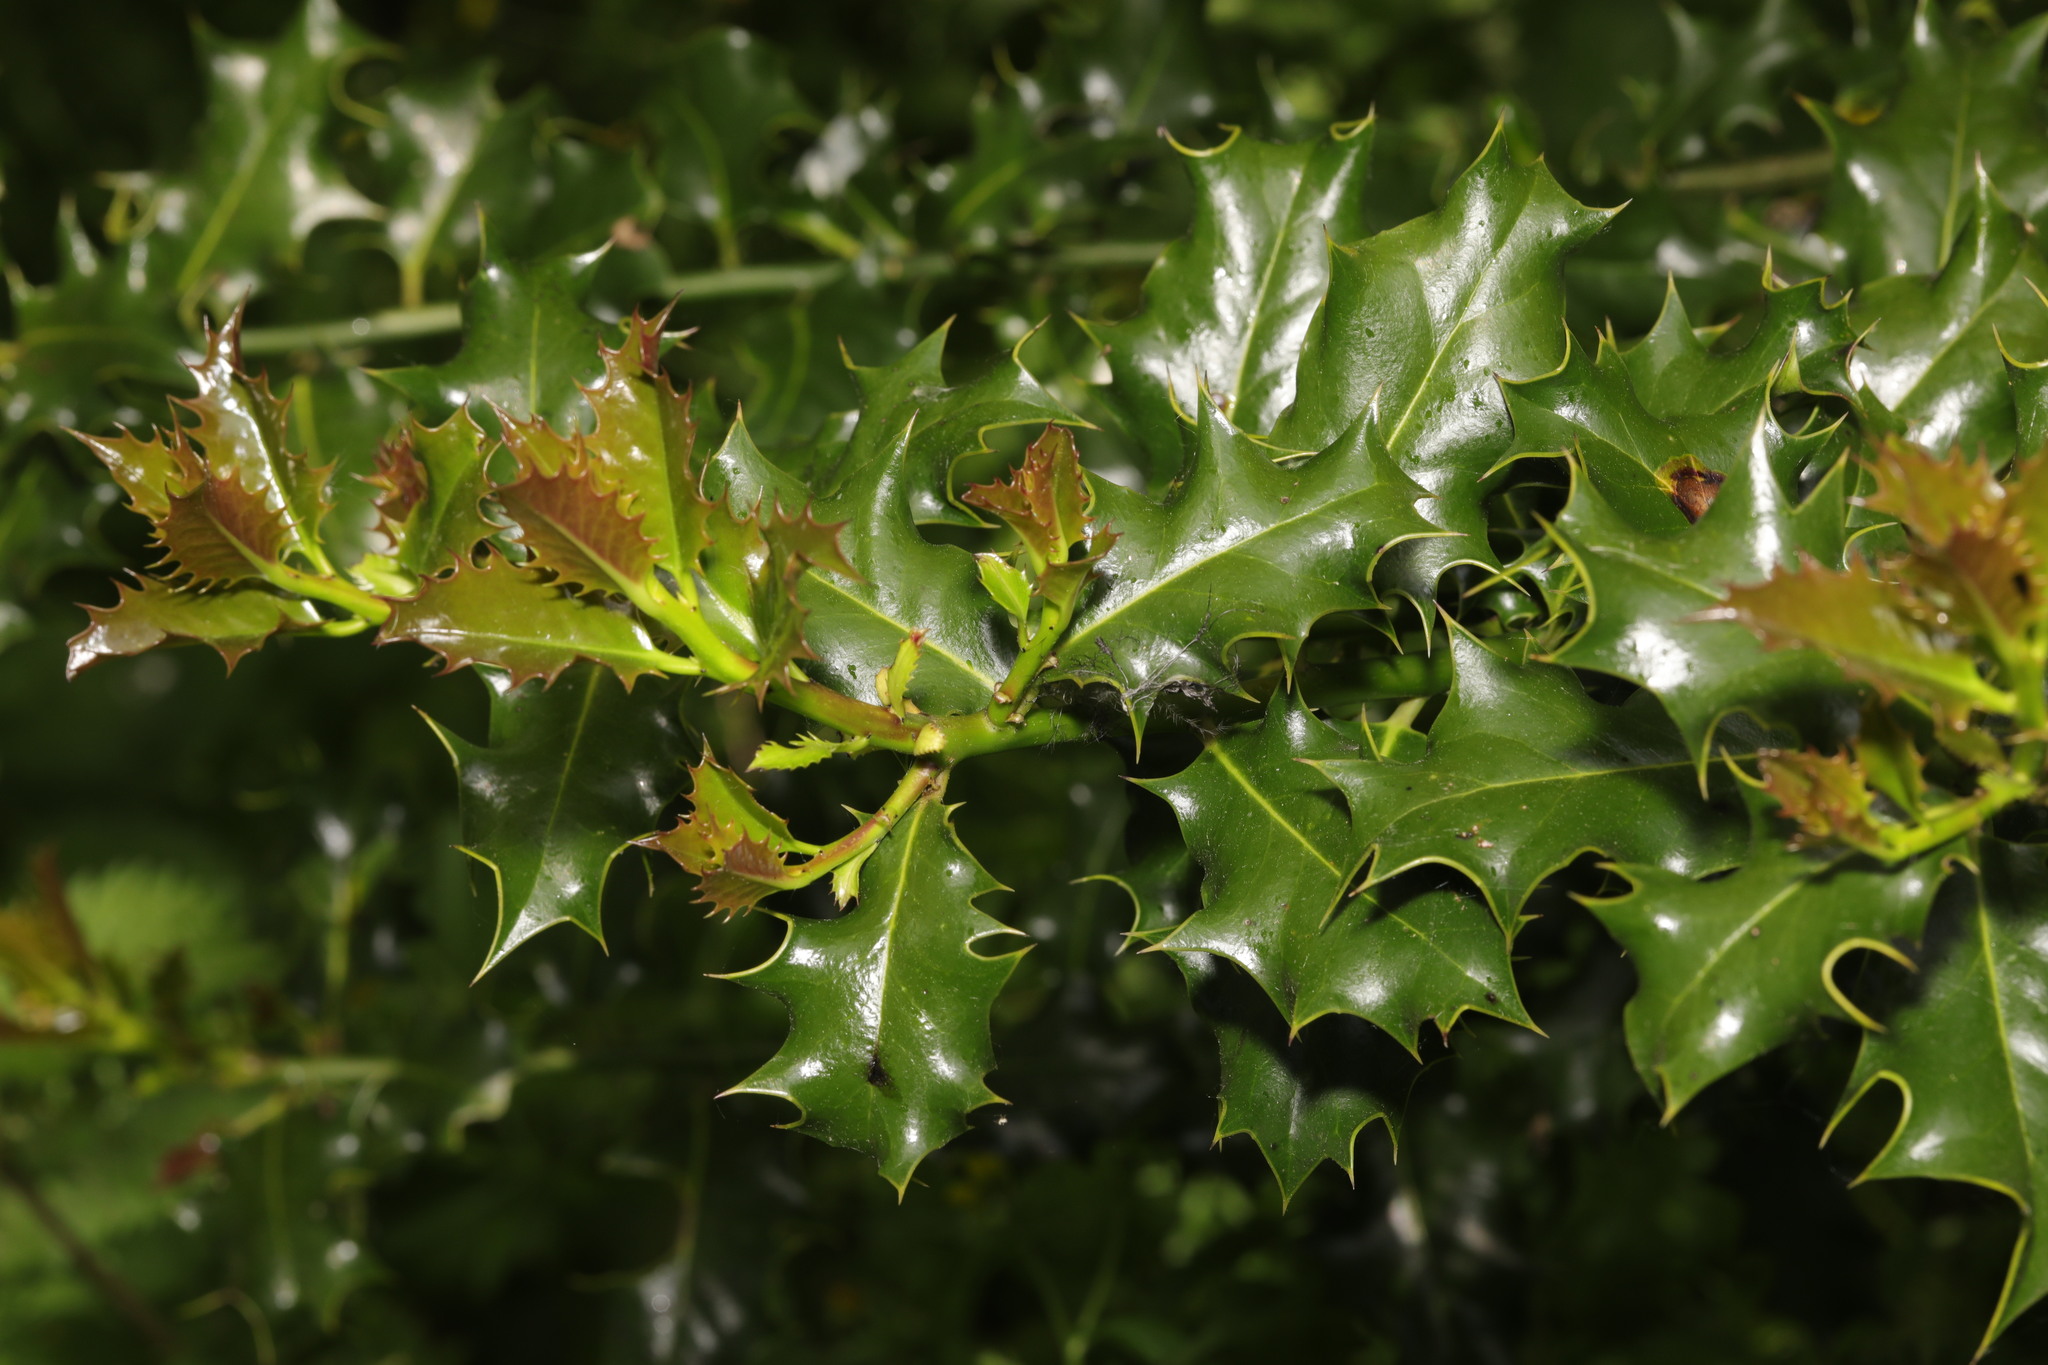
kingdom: Plantae
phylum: Tracheophyta
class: Magnoliopsida
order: Aquifoliales
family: Aquifoliaceae
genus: Ilex
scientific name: Ilex aquifolium
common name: English holly
